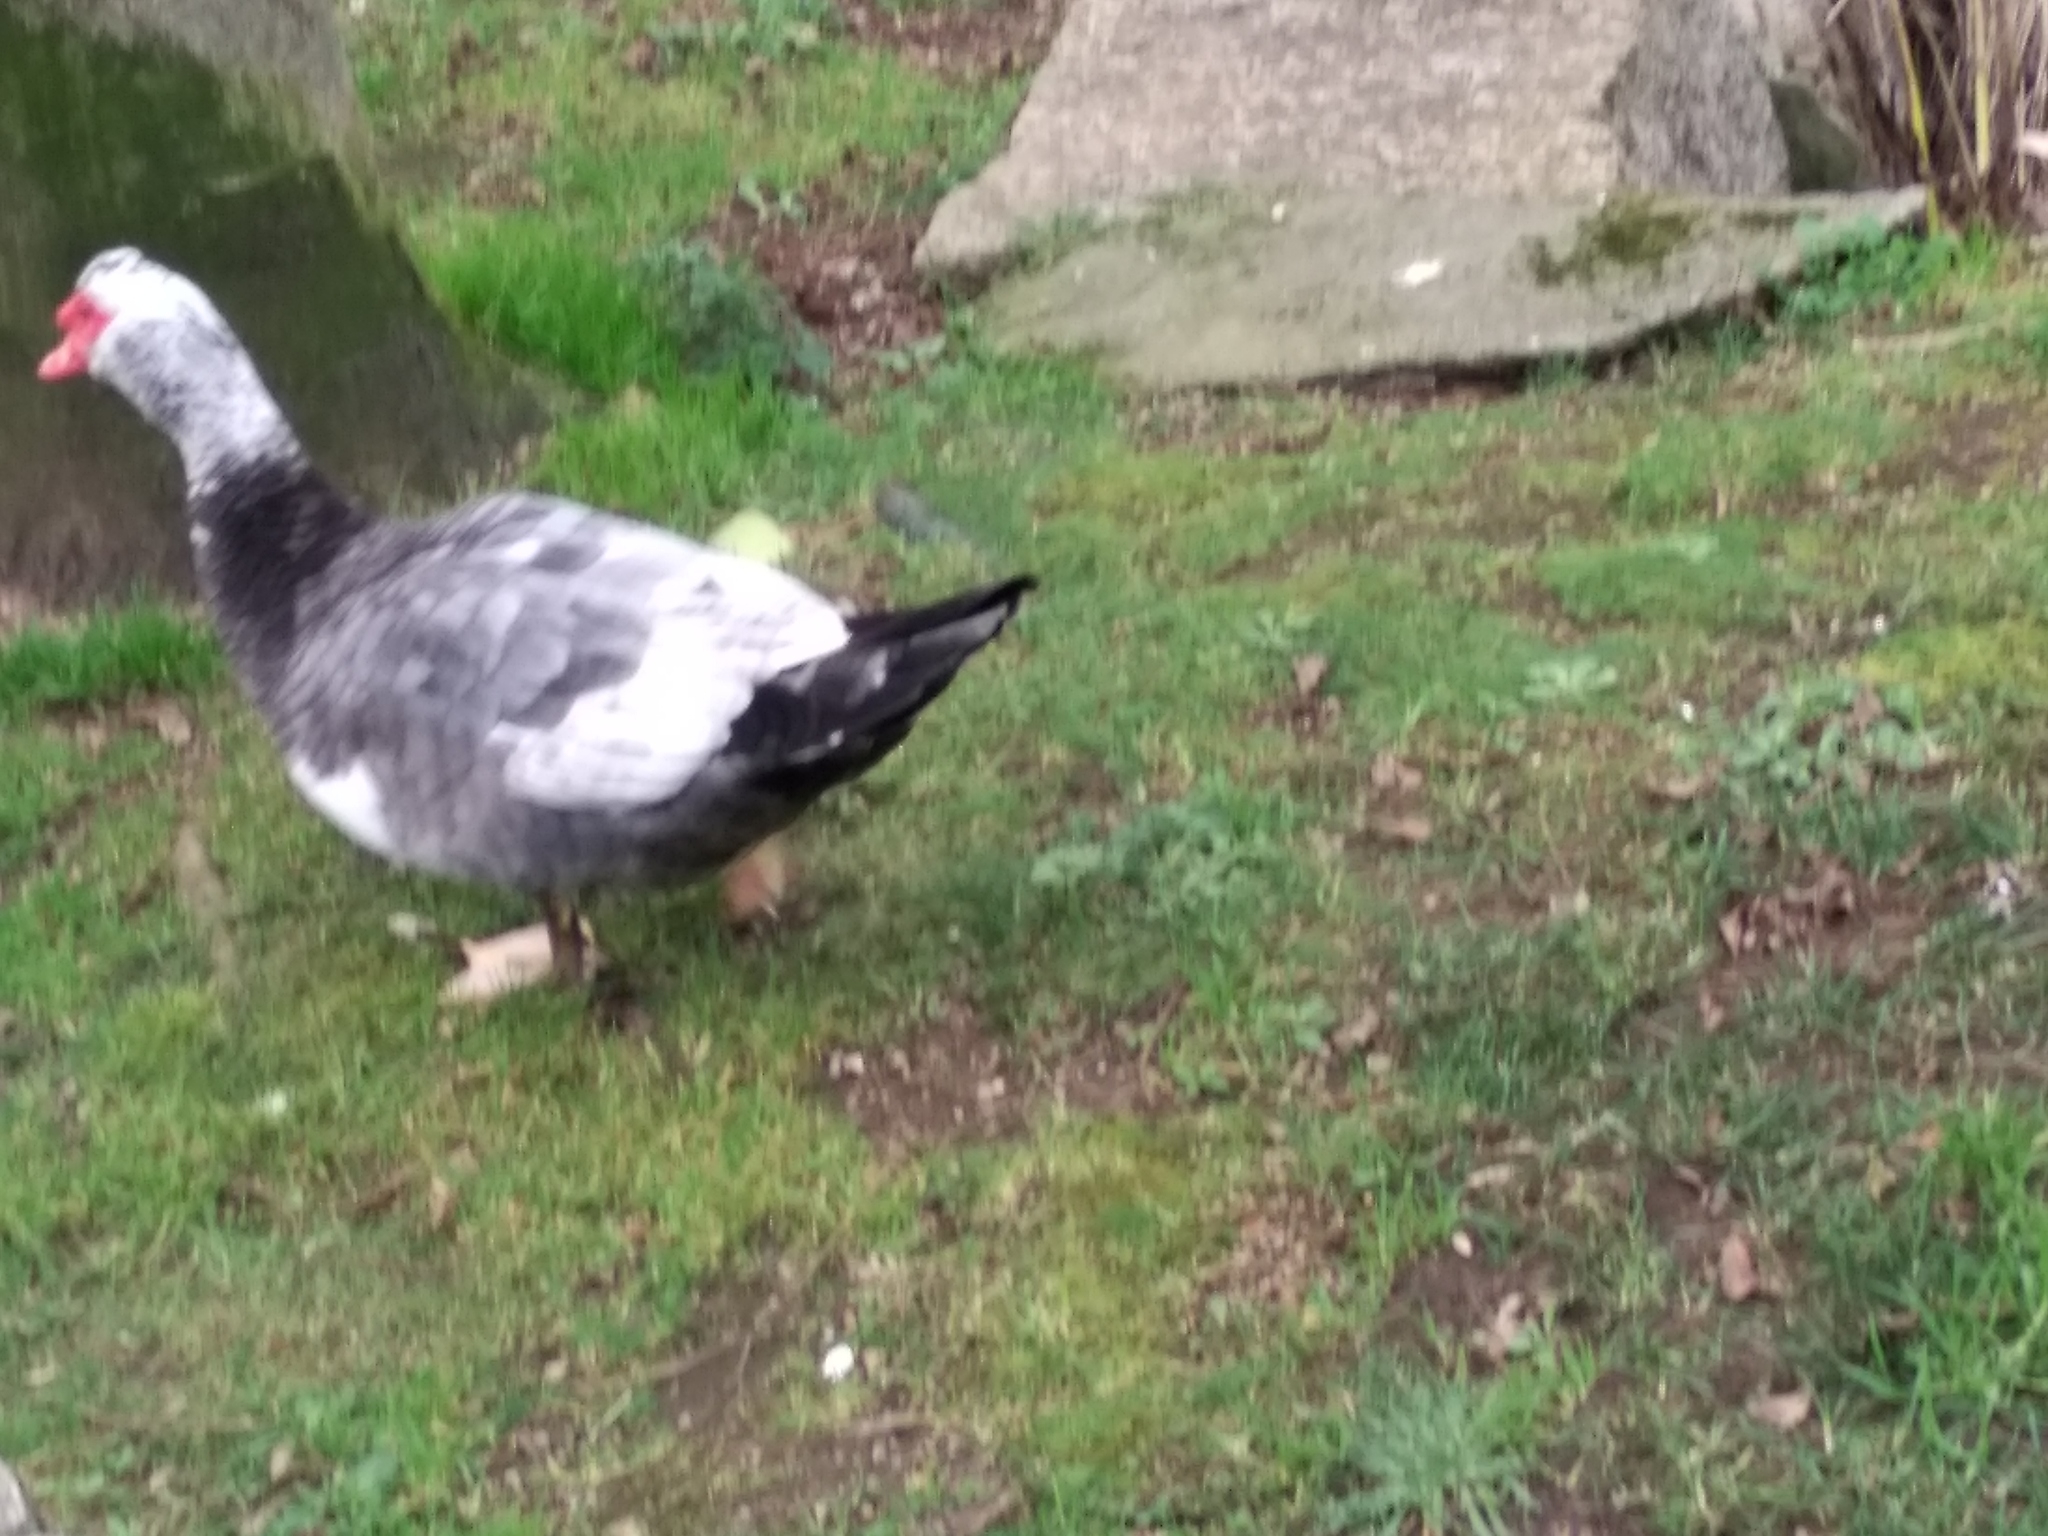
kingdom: Animalia
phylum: Chordata
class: Aves
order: Anseriformes
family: Anatidae
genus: Cairina
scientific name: Cairina moschata
